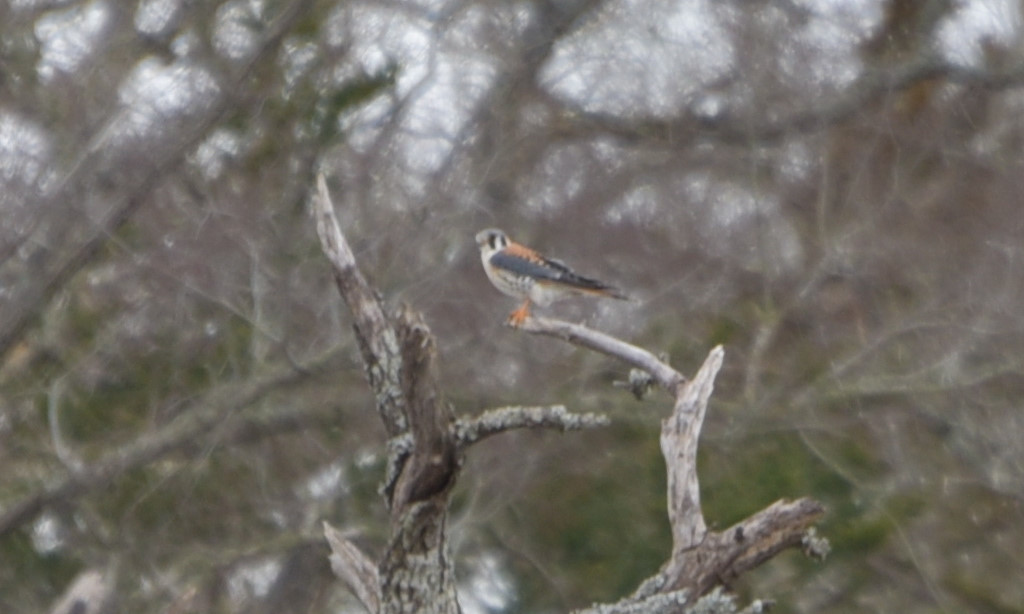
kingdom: Animalia
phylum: Chordata
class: Aves
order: Falconiformes
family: Falconidae
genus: Falco
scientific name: Falco sparverius
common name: American kestrel
